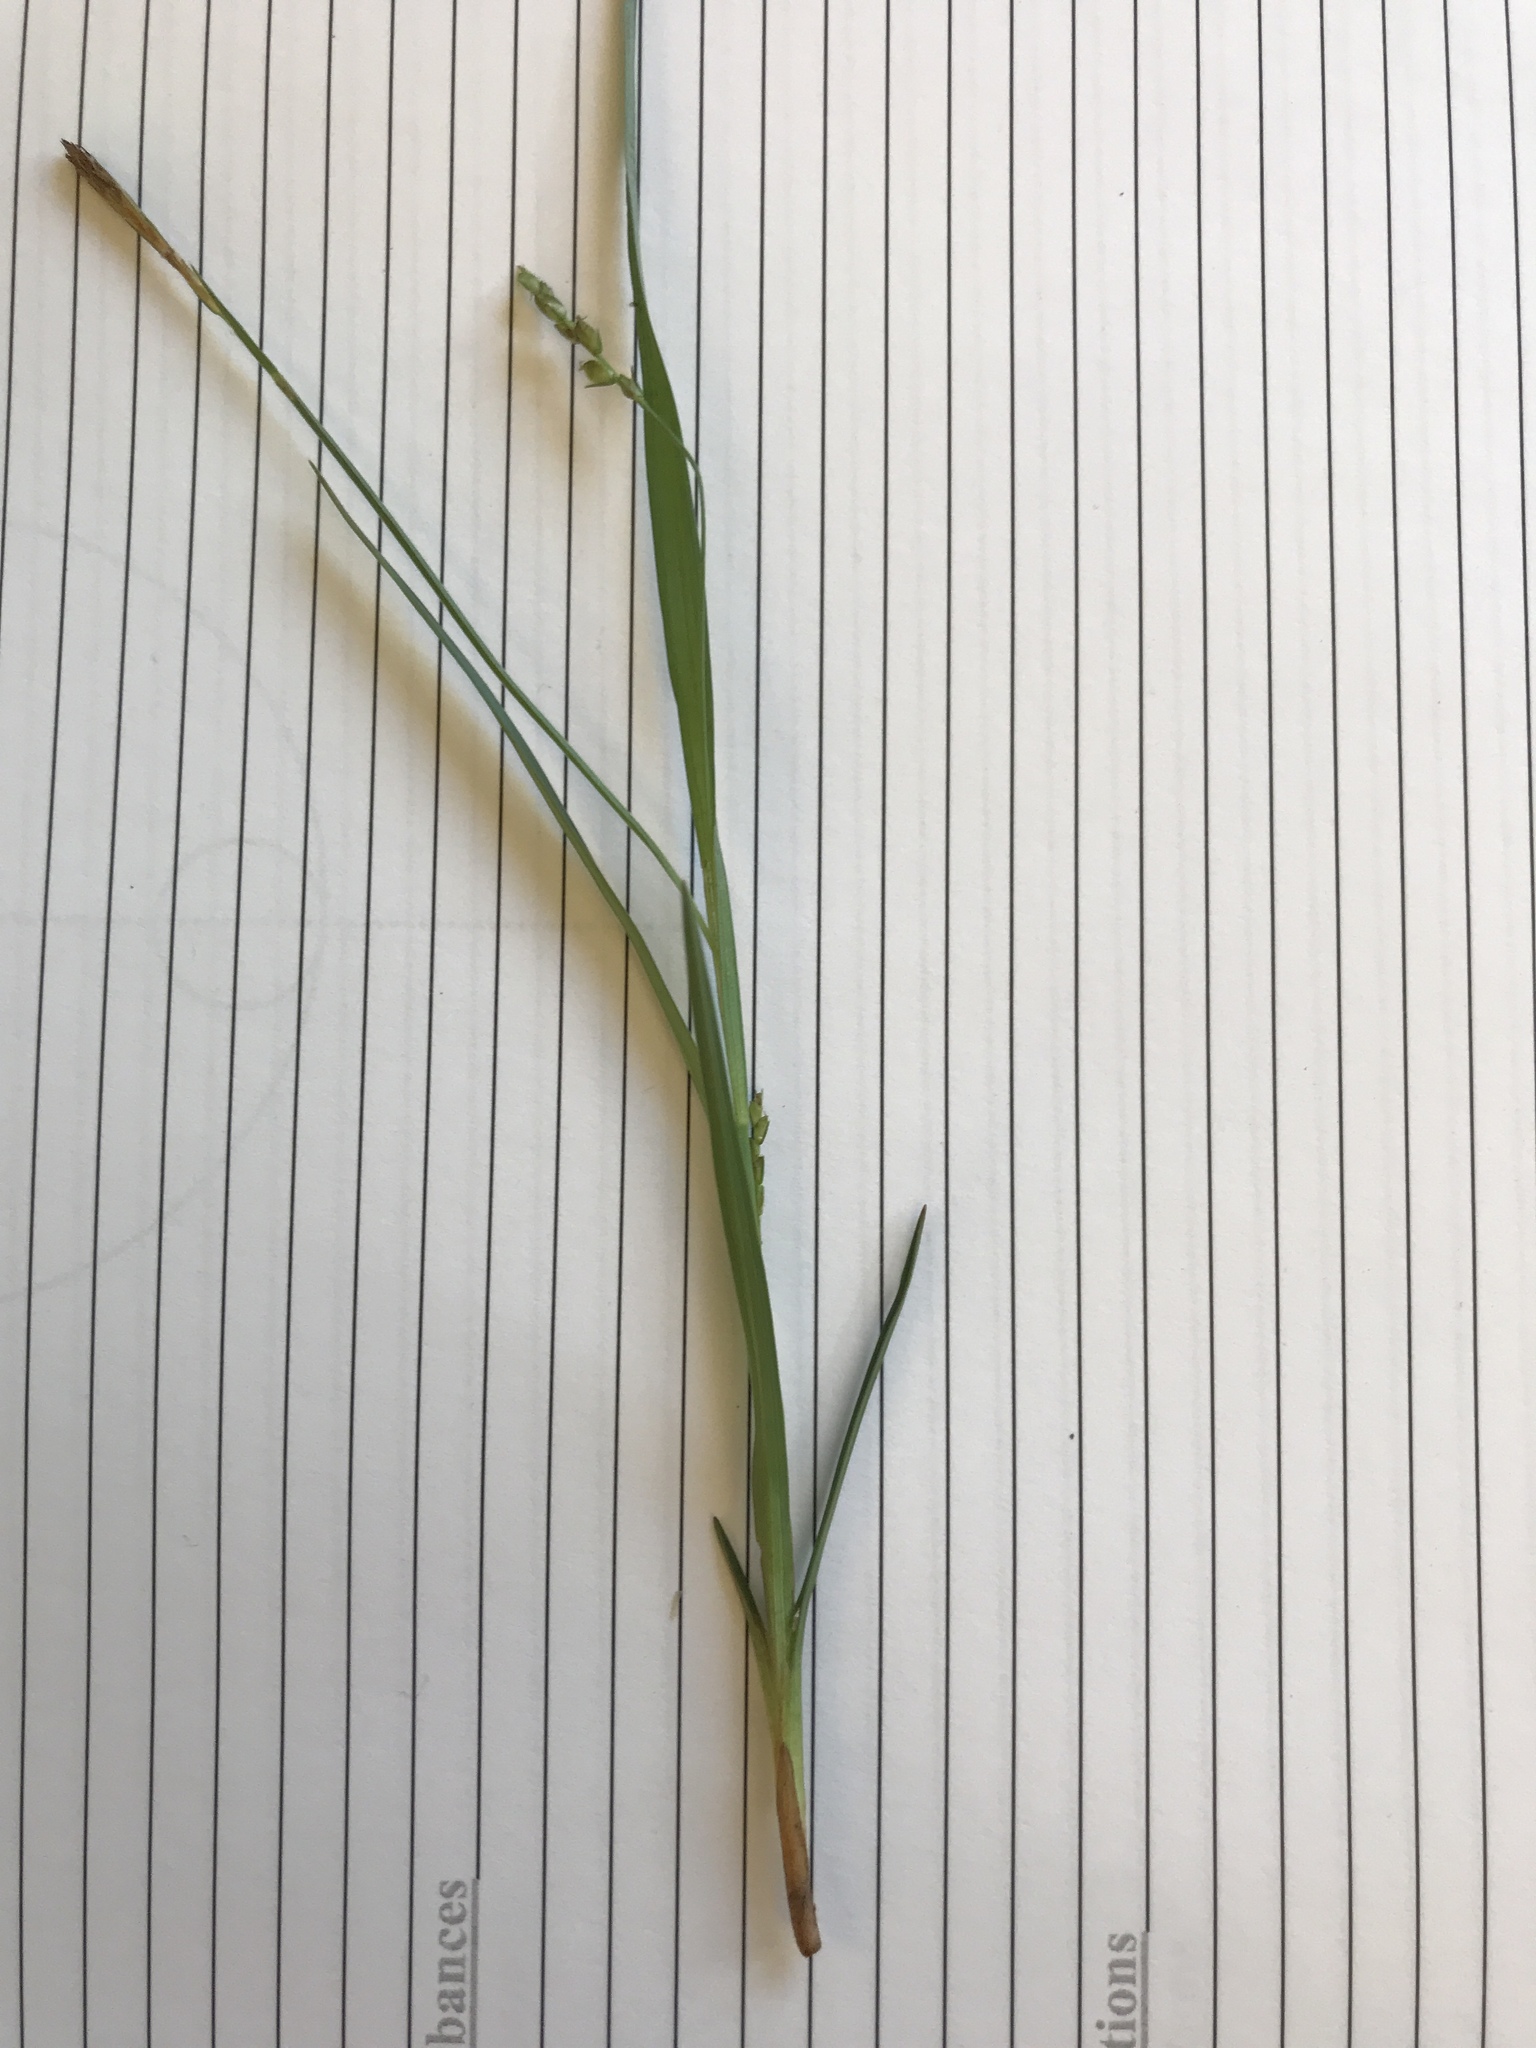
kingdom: Plantae
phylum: Tracheophyta
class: Liliopsida
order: Poales
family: Cyperaceae
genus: Carex
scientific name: Carex digitalis
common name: Slender wood sedge
